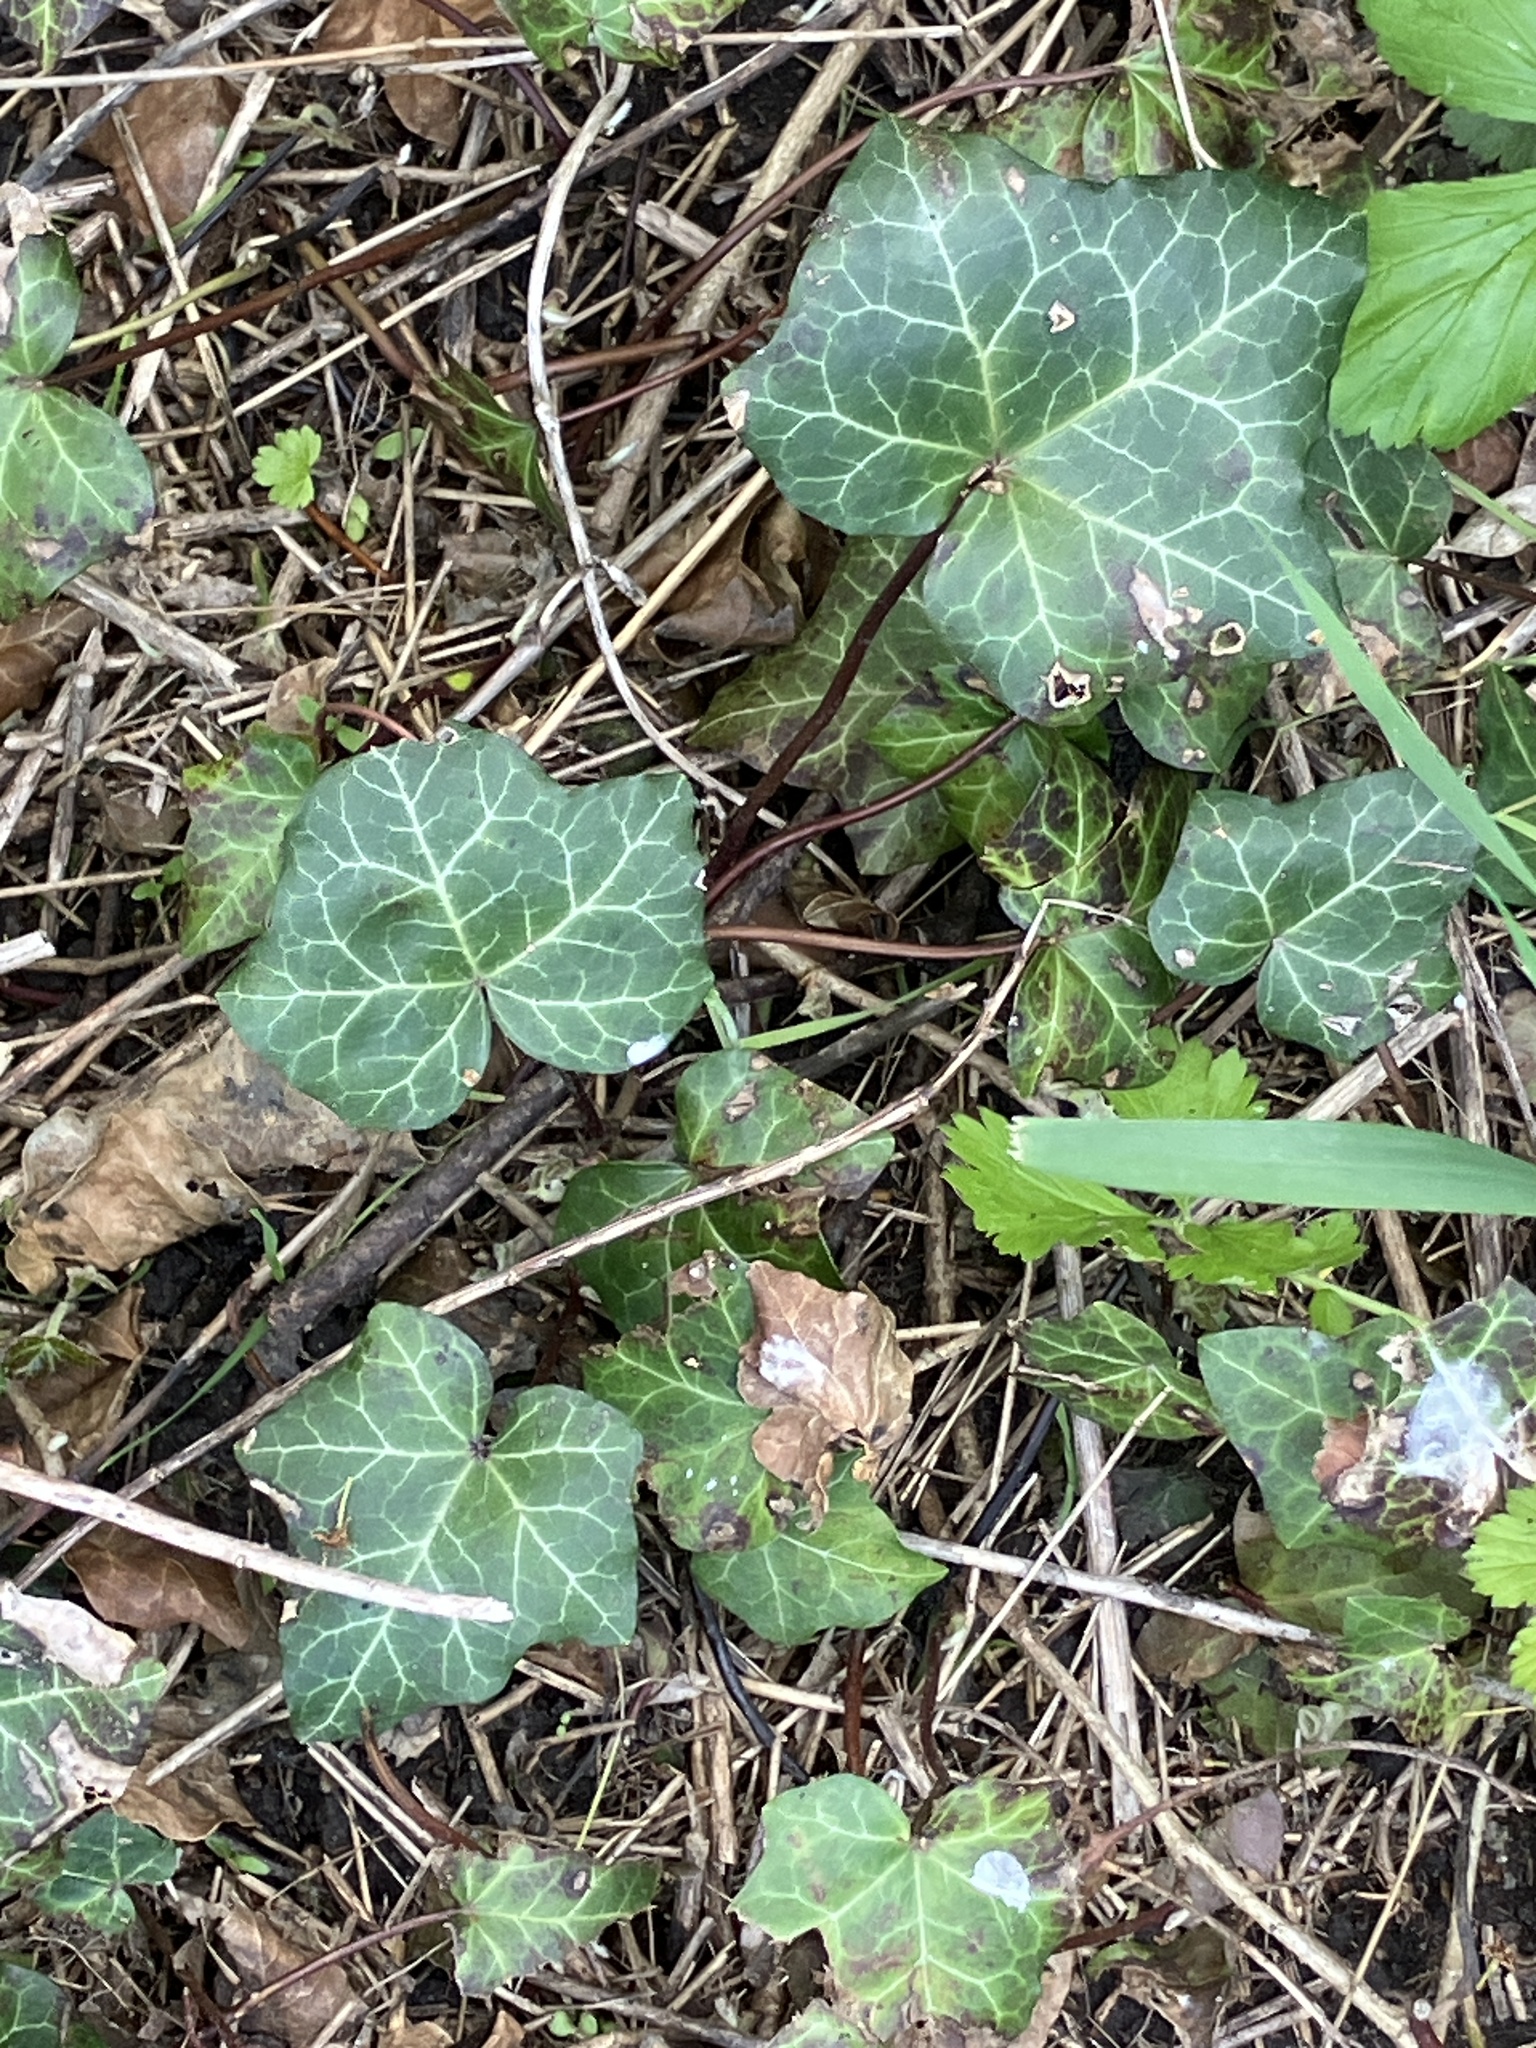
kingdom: Plantae
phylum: Tracheophyta
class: Magnoliopsida
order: Apiales
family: Araliaceae
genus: Hedera
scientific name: Hedera helix
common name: Ivy
